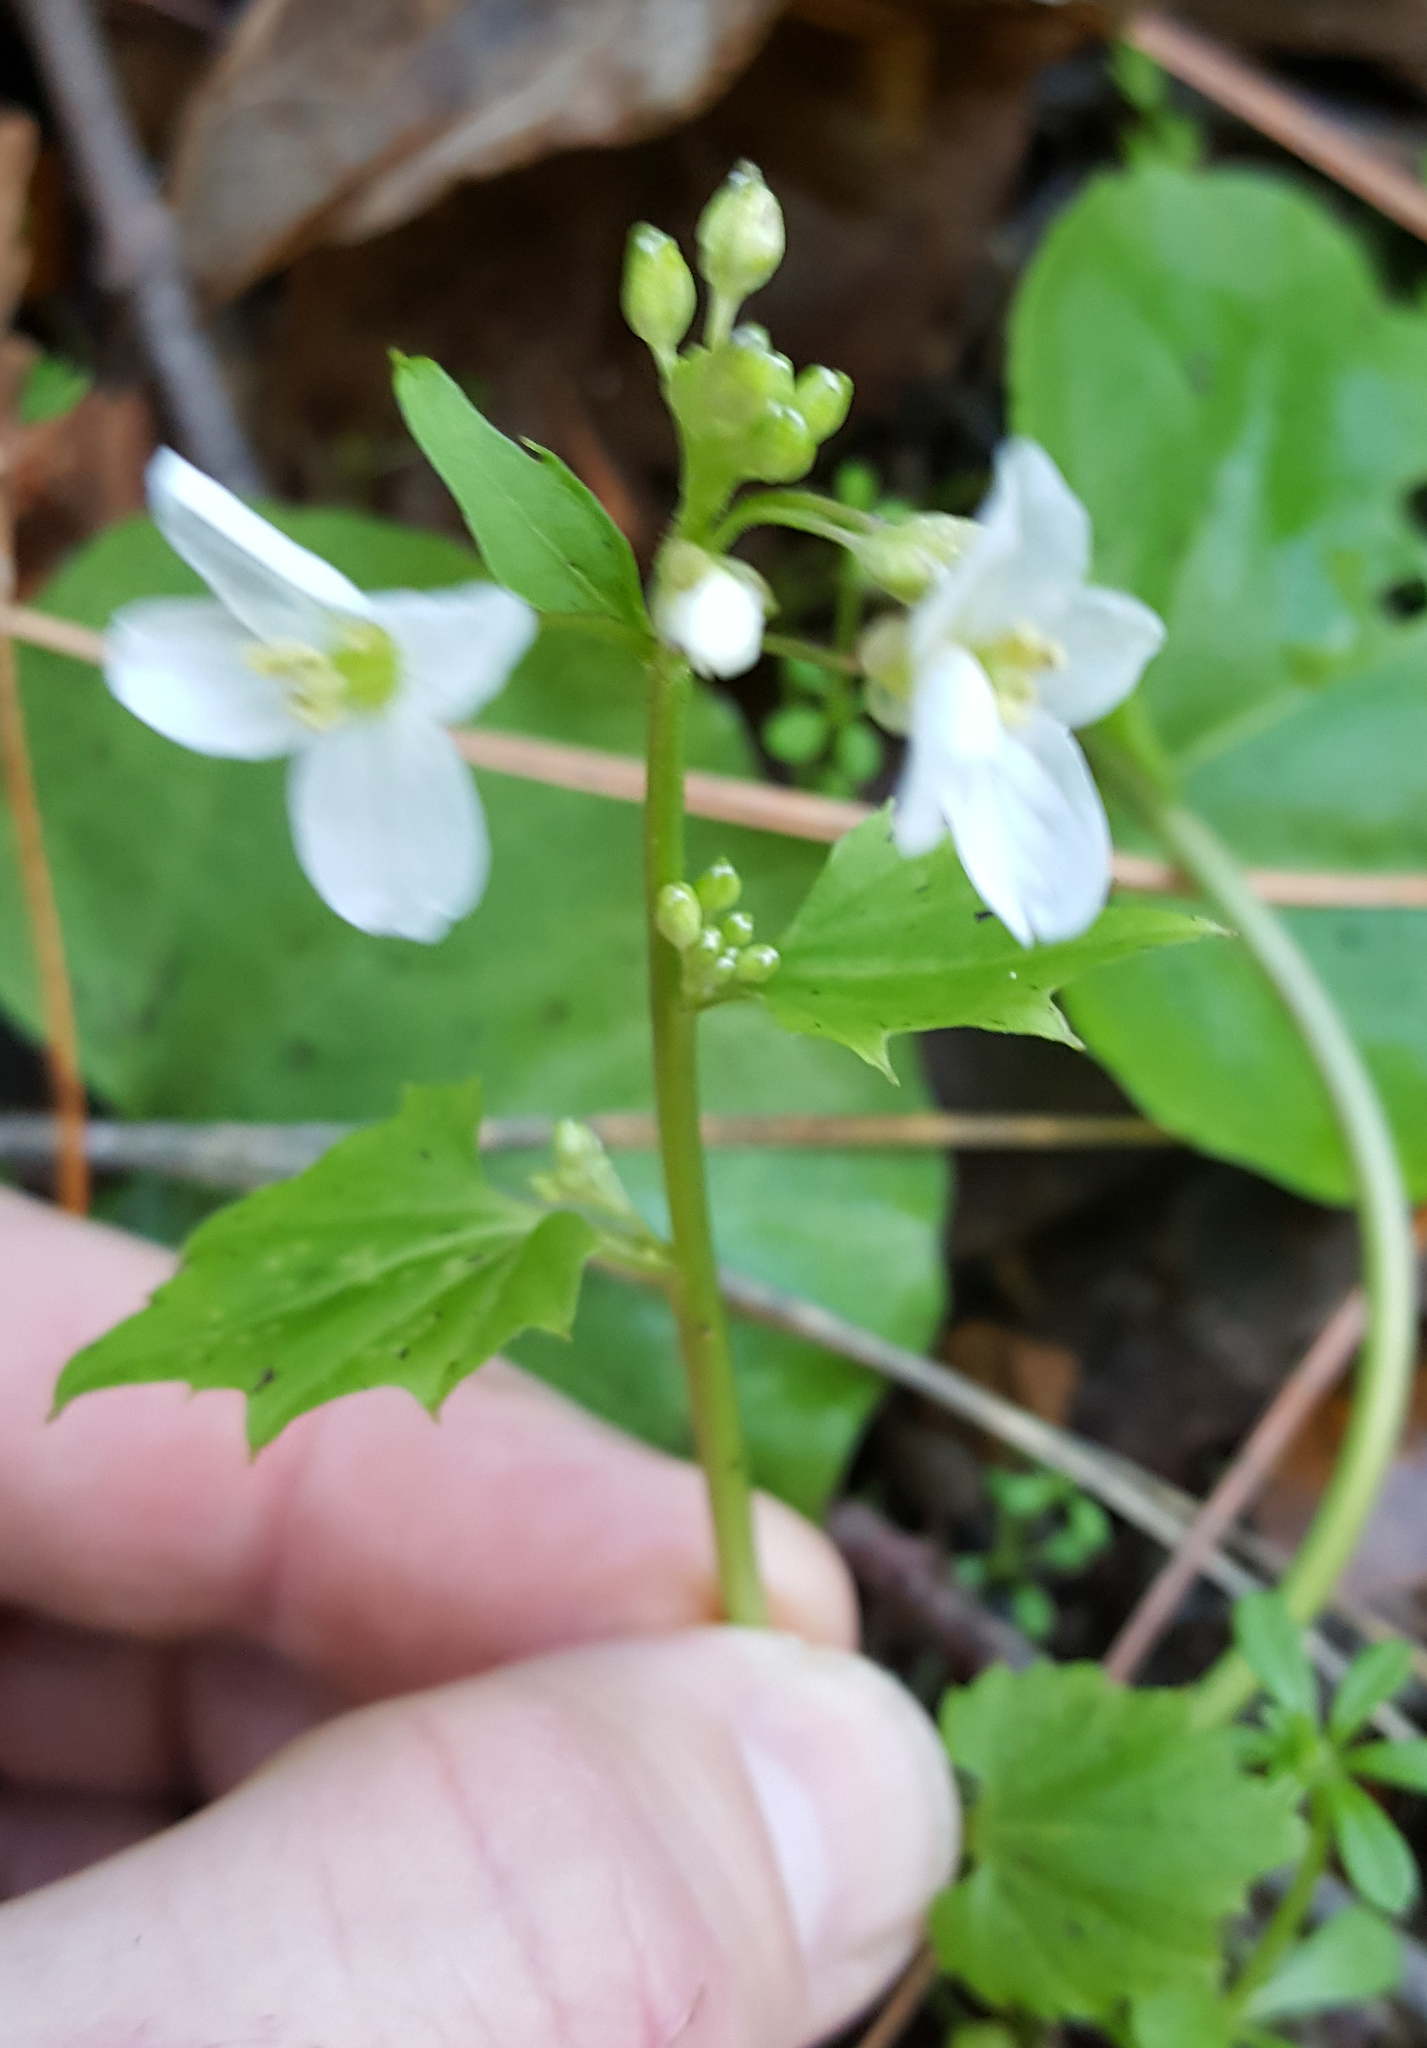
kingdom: Plantae
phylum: Tracheophyta
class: Magnoliopsida
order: Brassicales
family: Brassicaceae
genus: Cardamine
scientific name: Cardamine californica
